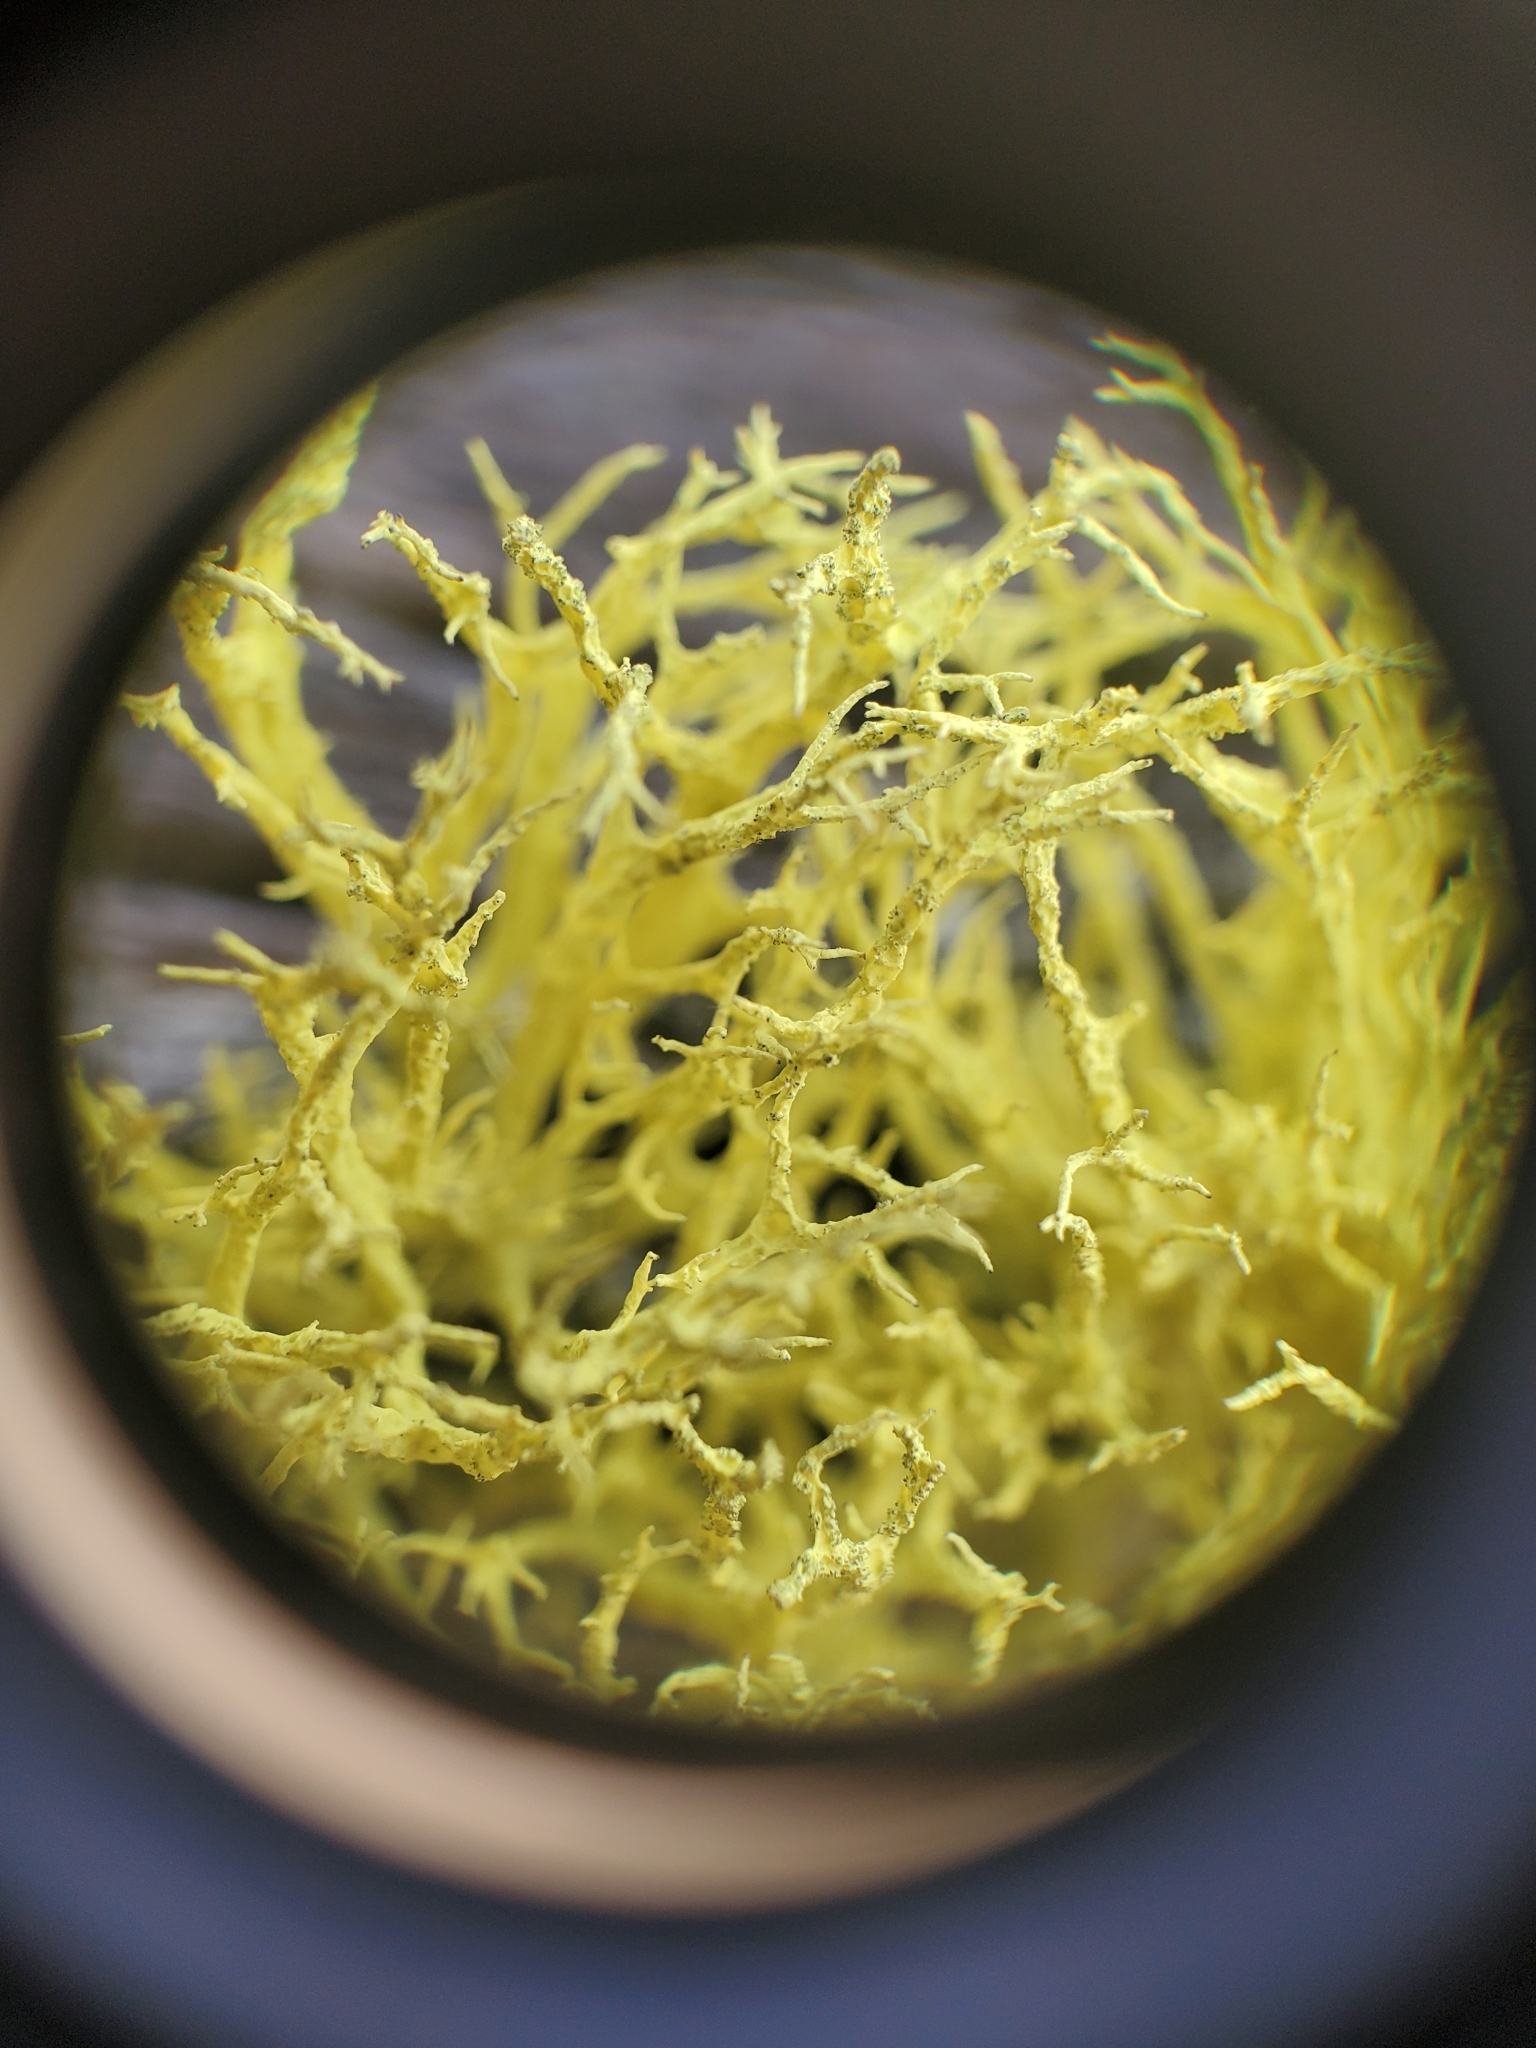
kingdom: Fungi
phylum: Ascomycota
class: Lecanoromycetes
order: Lecanorales
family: Parmeliaceae
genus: Letharia
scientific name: Letharia vulpina
